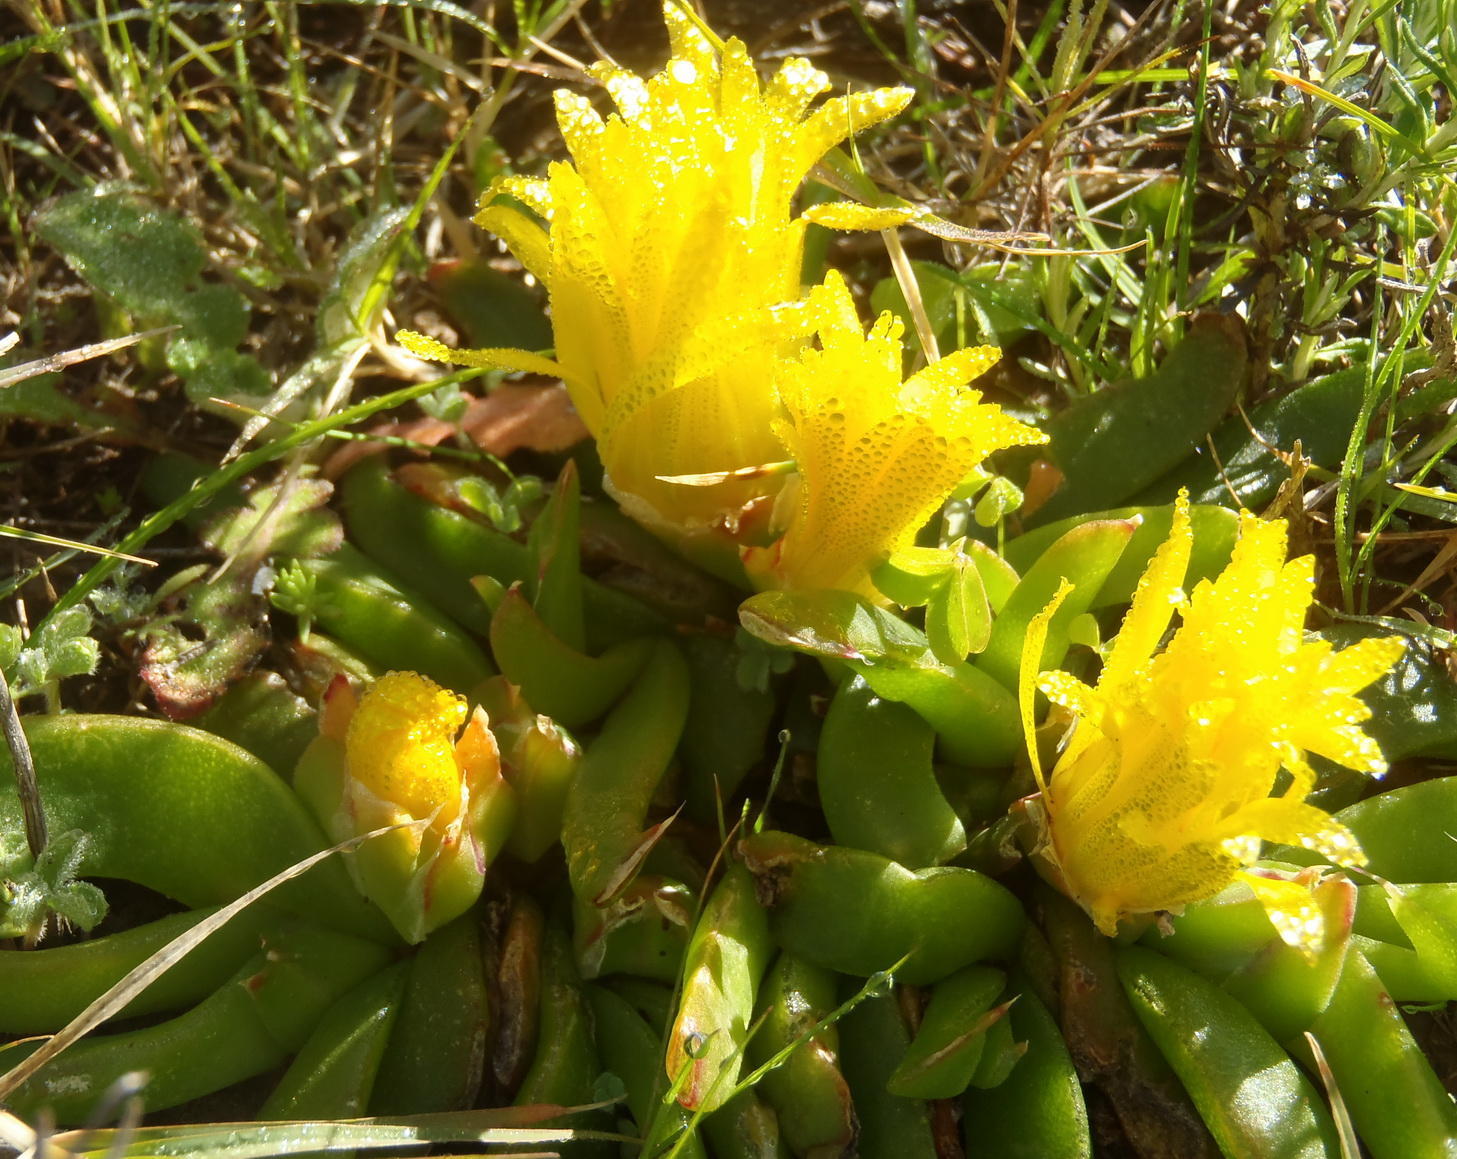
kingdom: Plantae
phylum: Tracheophyta
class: Magnoliopsida
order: Caryophyllales
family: Aizoaceae
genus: Glottiphyllum
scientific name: Glottiphyllum depressum
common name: Fig-marigold
